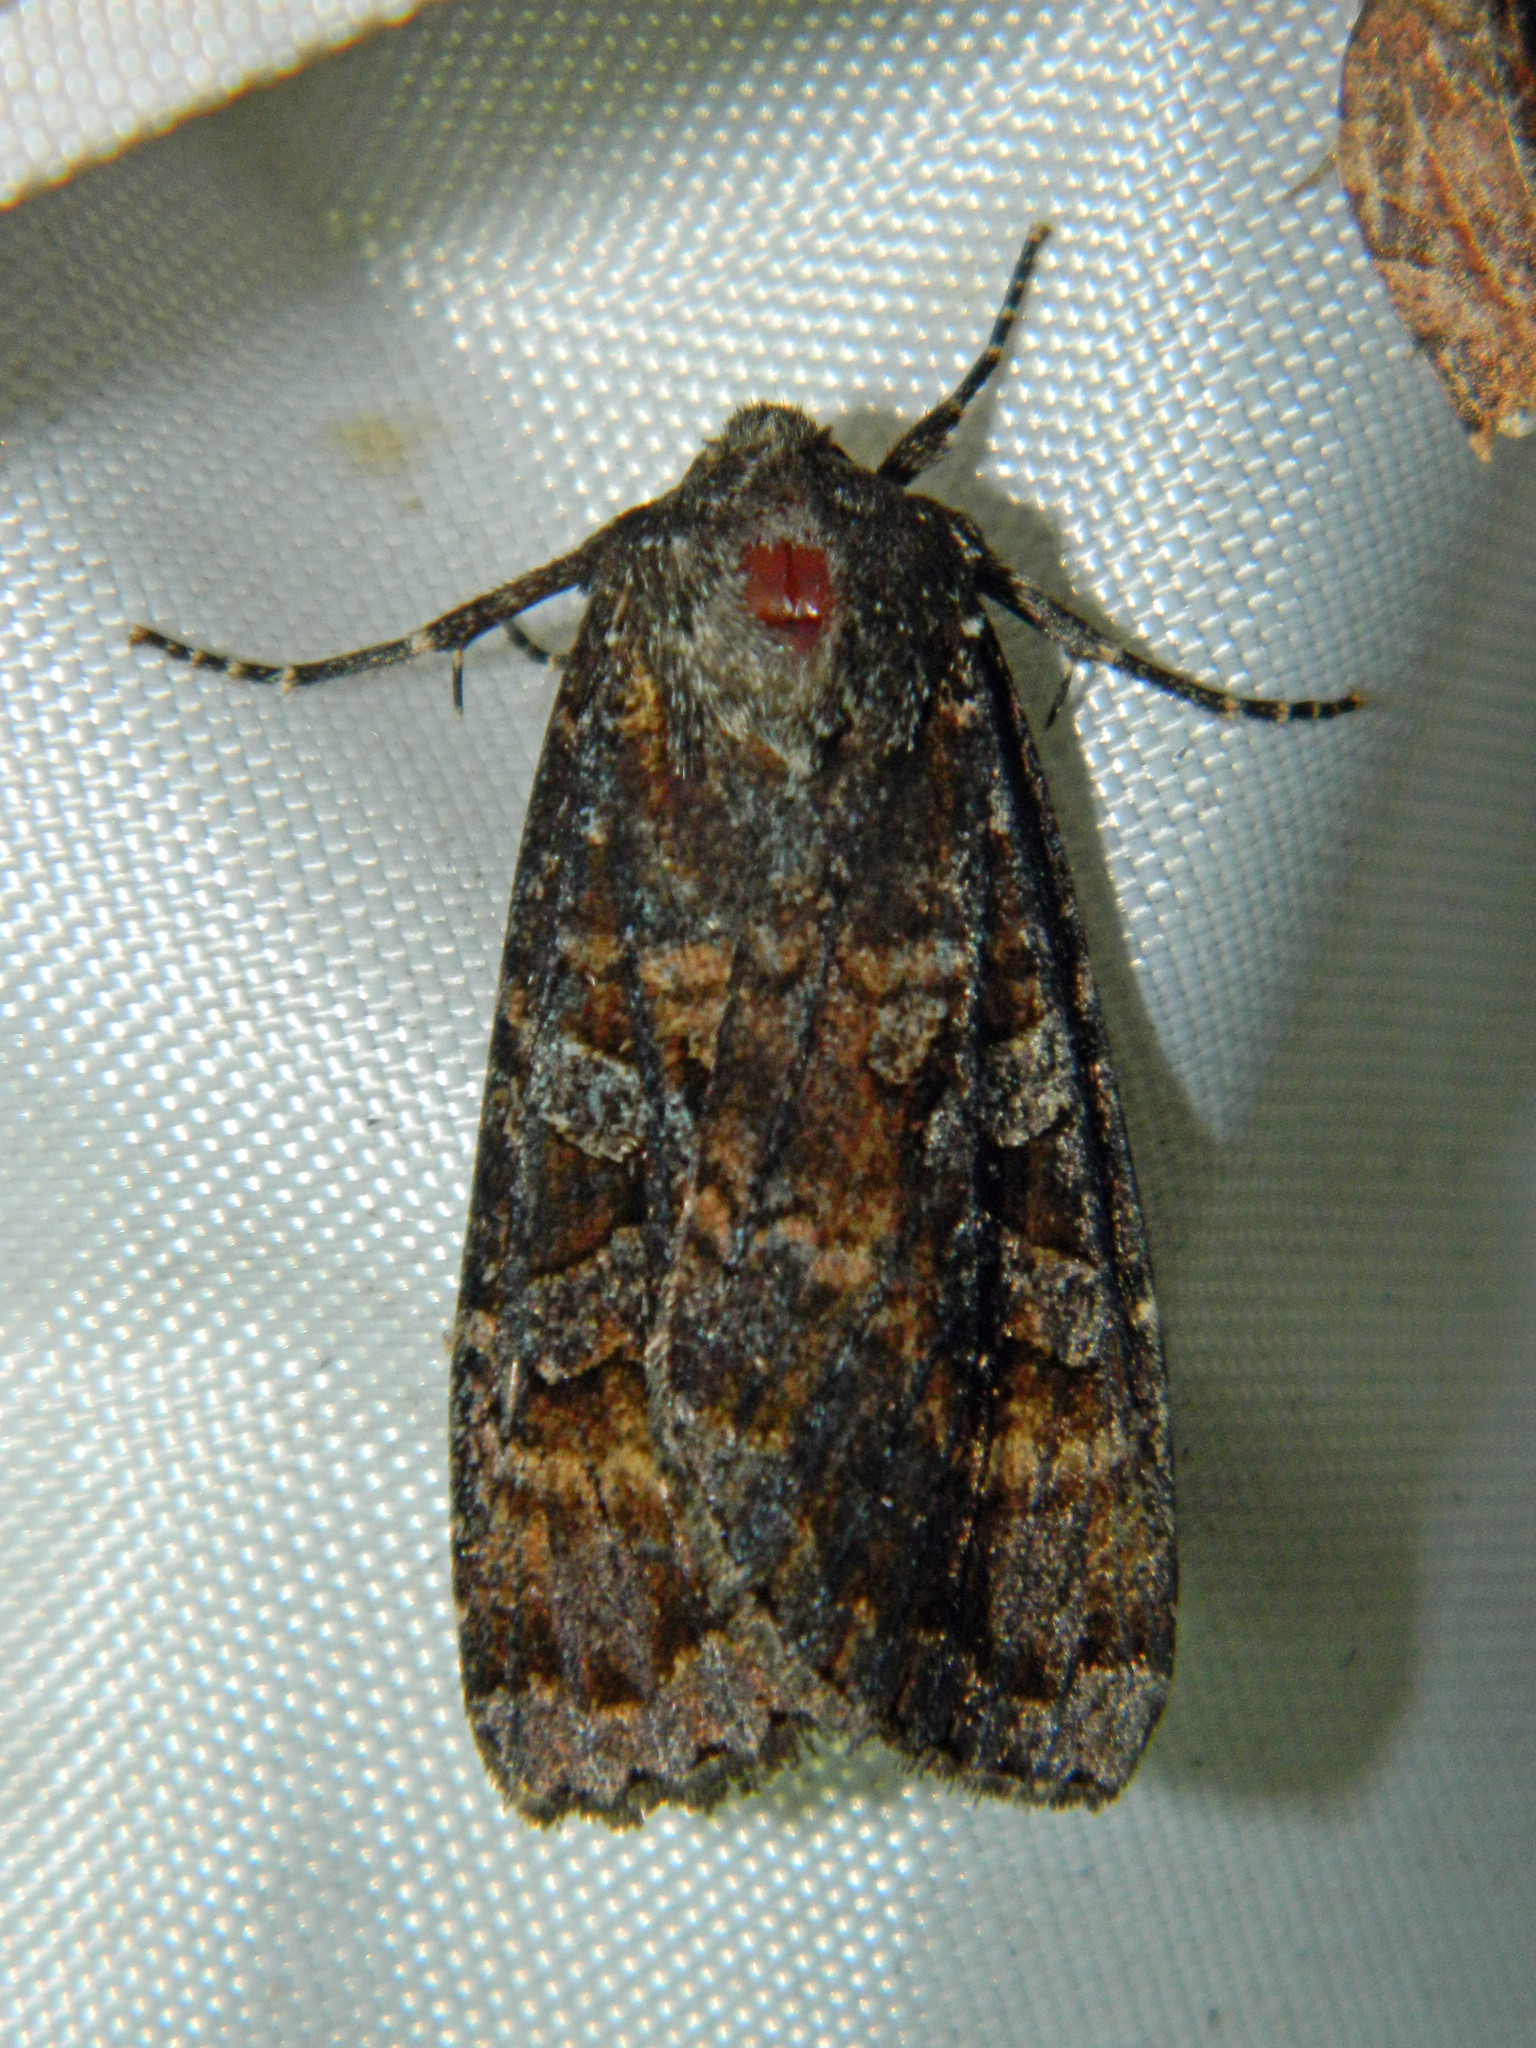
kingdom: Animalia
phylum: Arthropoda
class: Insecta
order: Lepidoptera
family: Noctuidae
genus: Eurois
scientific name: Eurois astricta
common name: Great brown dart
